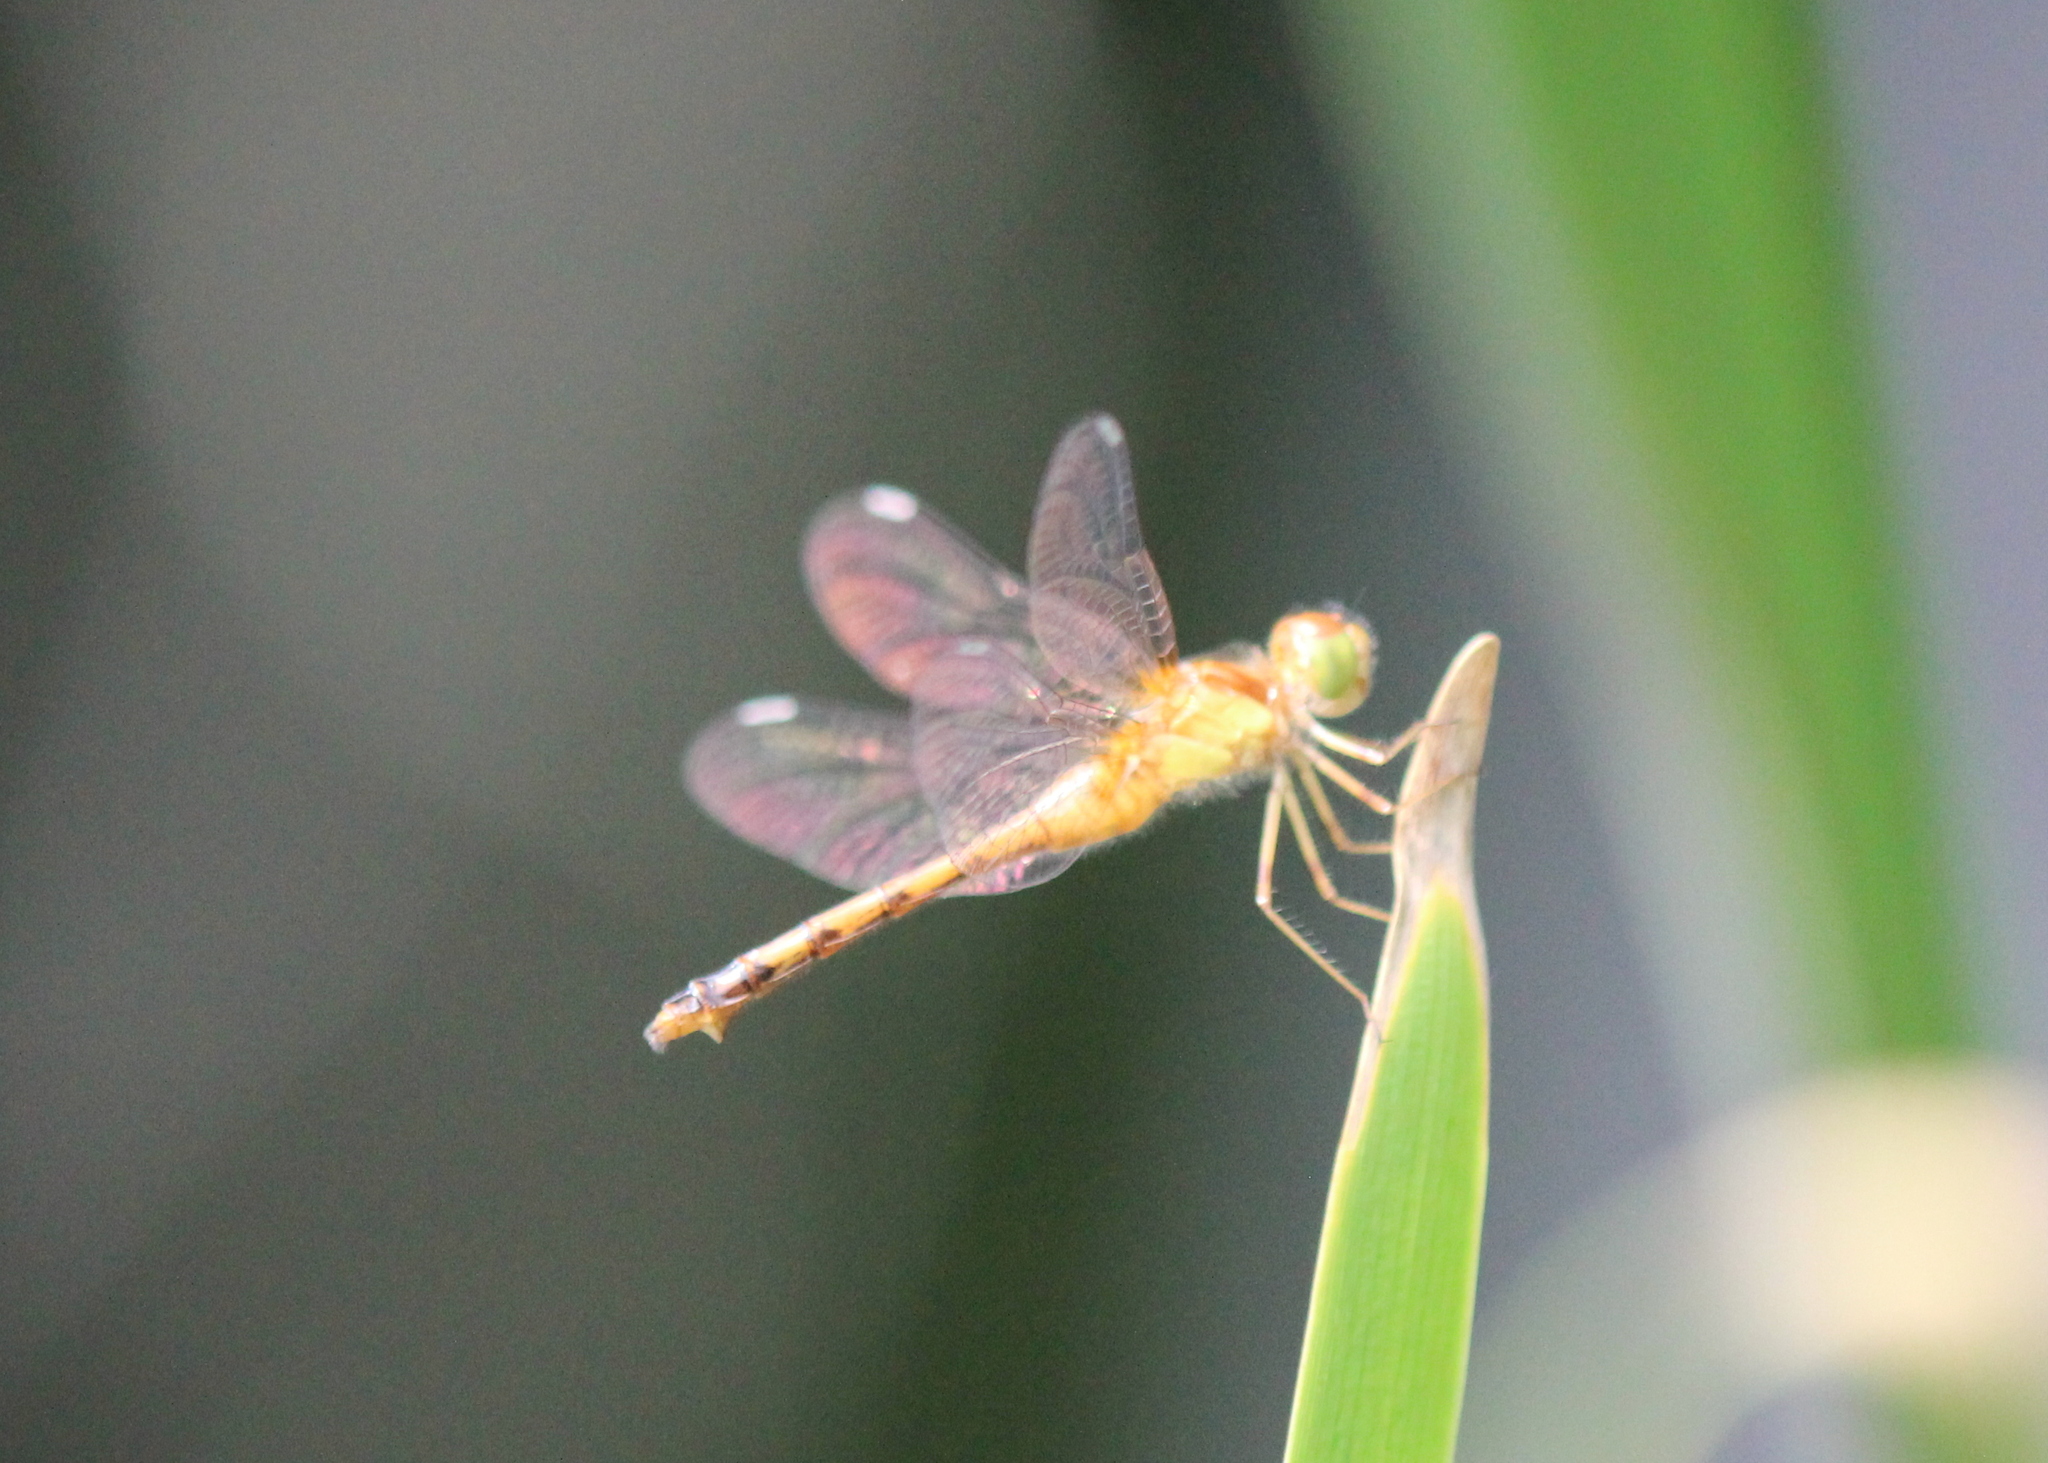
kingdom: Animalia
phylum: Arthropoda
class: Insecta
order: Odonata
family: Libellulidae
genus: Sympetrum
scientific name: Sympetrum vicinum
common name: Autumn meadowhawk
